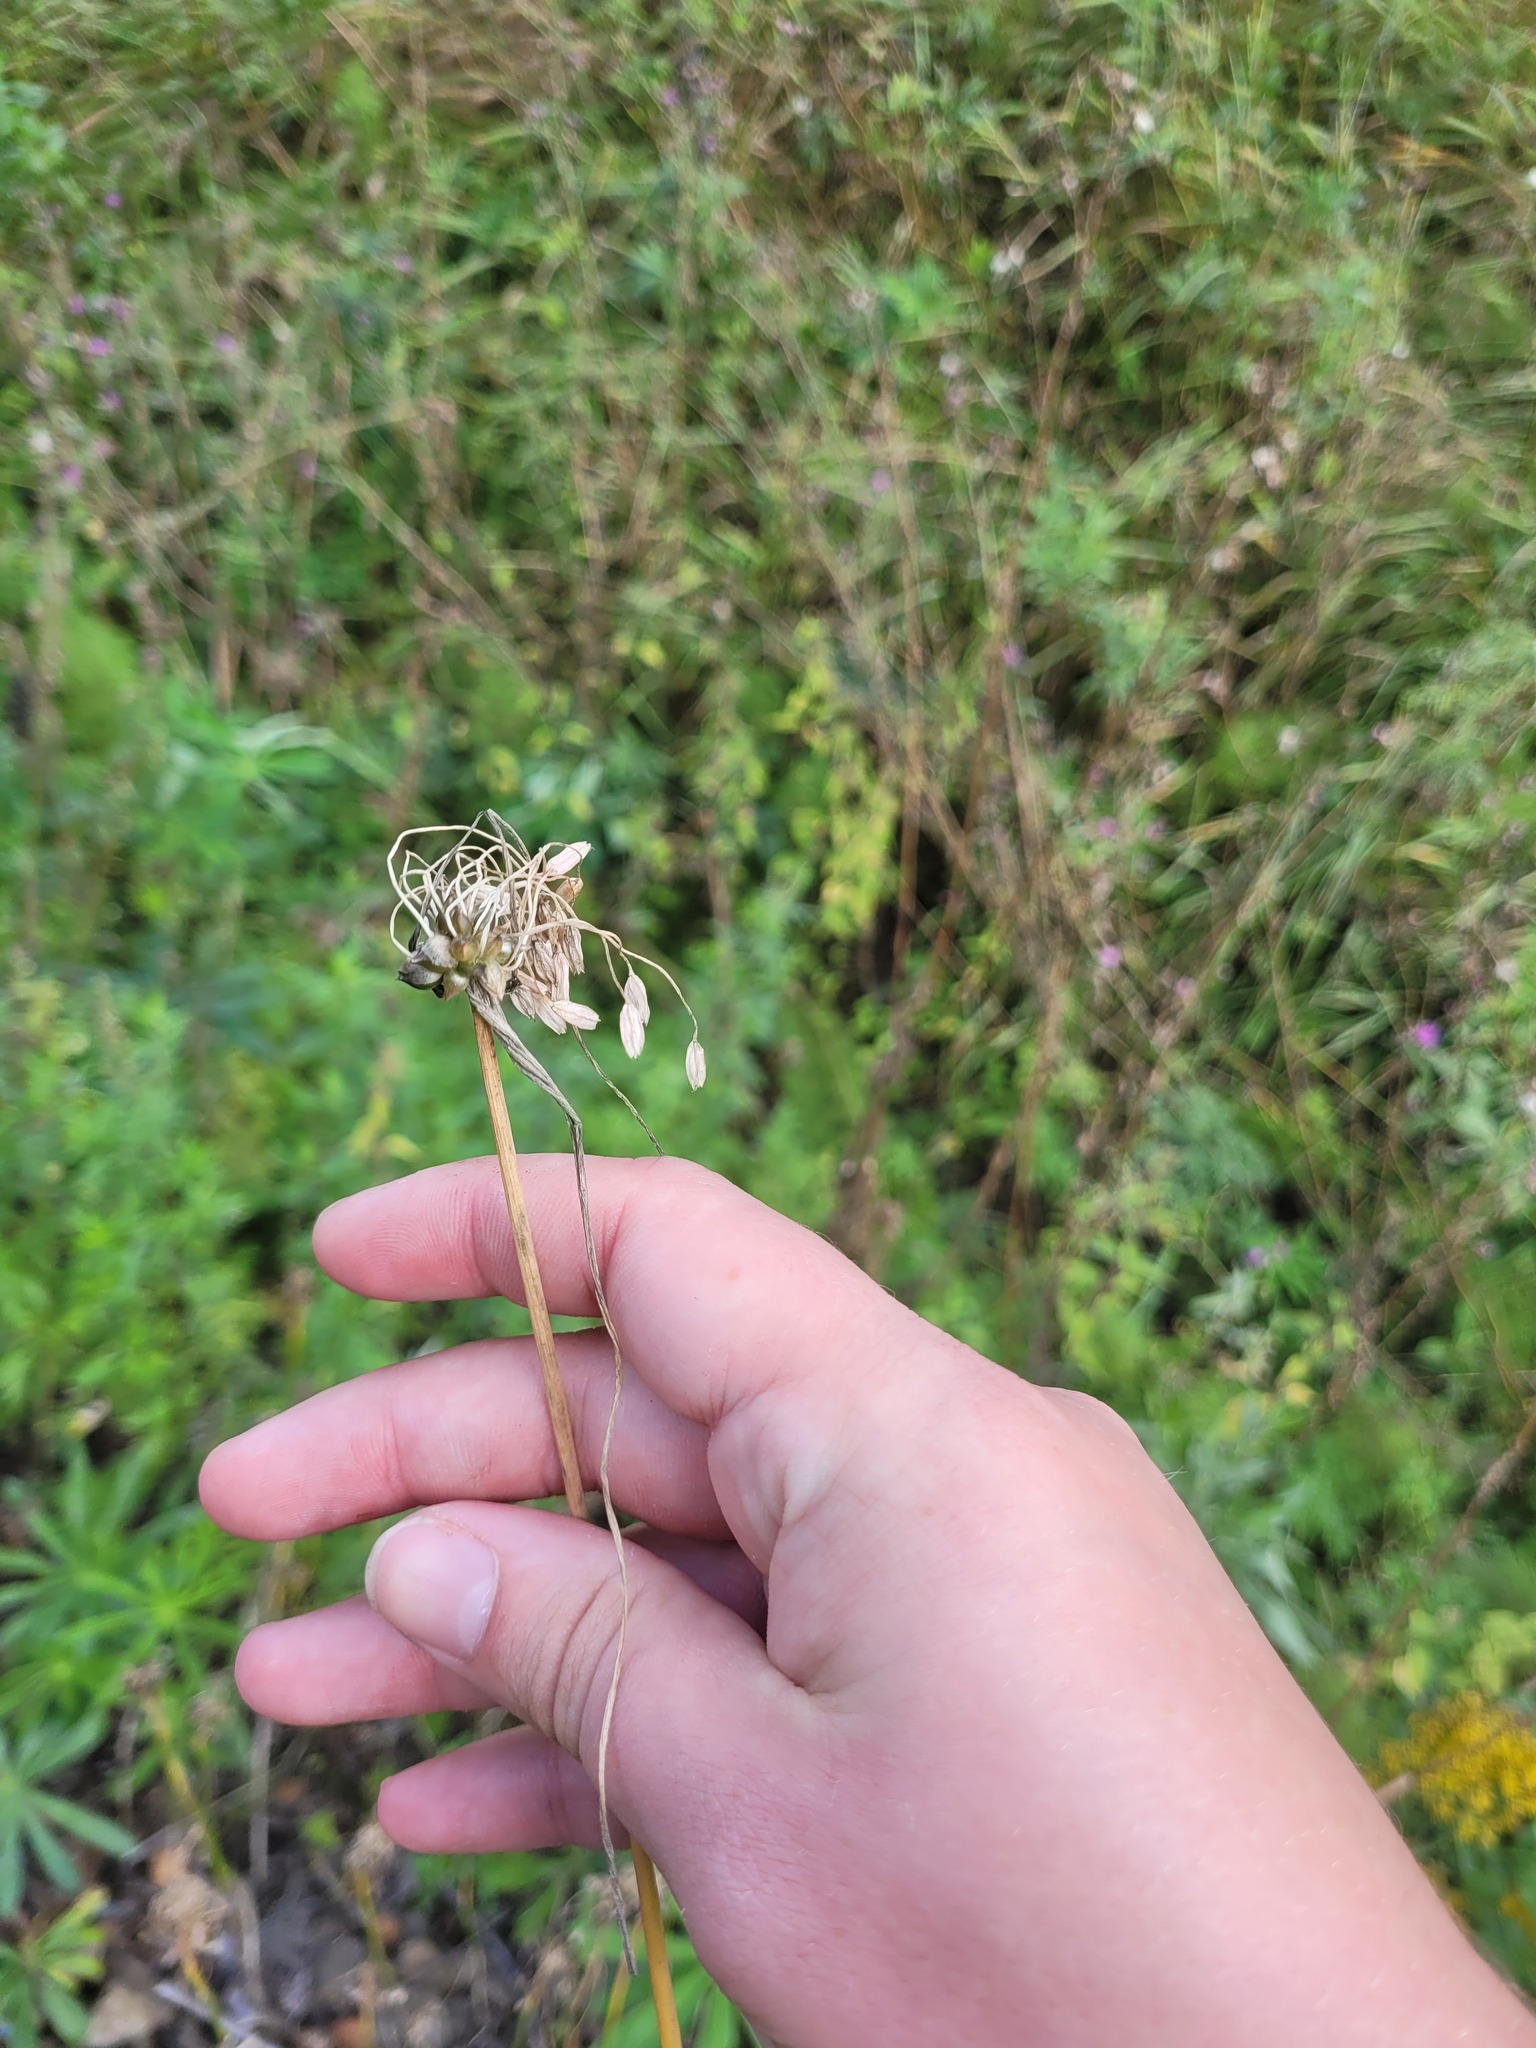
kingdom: Plantae
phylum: Tracheophyta
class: Liliopsida
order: Asparagales
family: Amaryllidaceae
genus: Allium
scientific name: Allium oleraceum
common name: Field garlic
